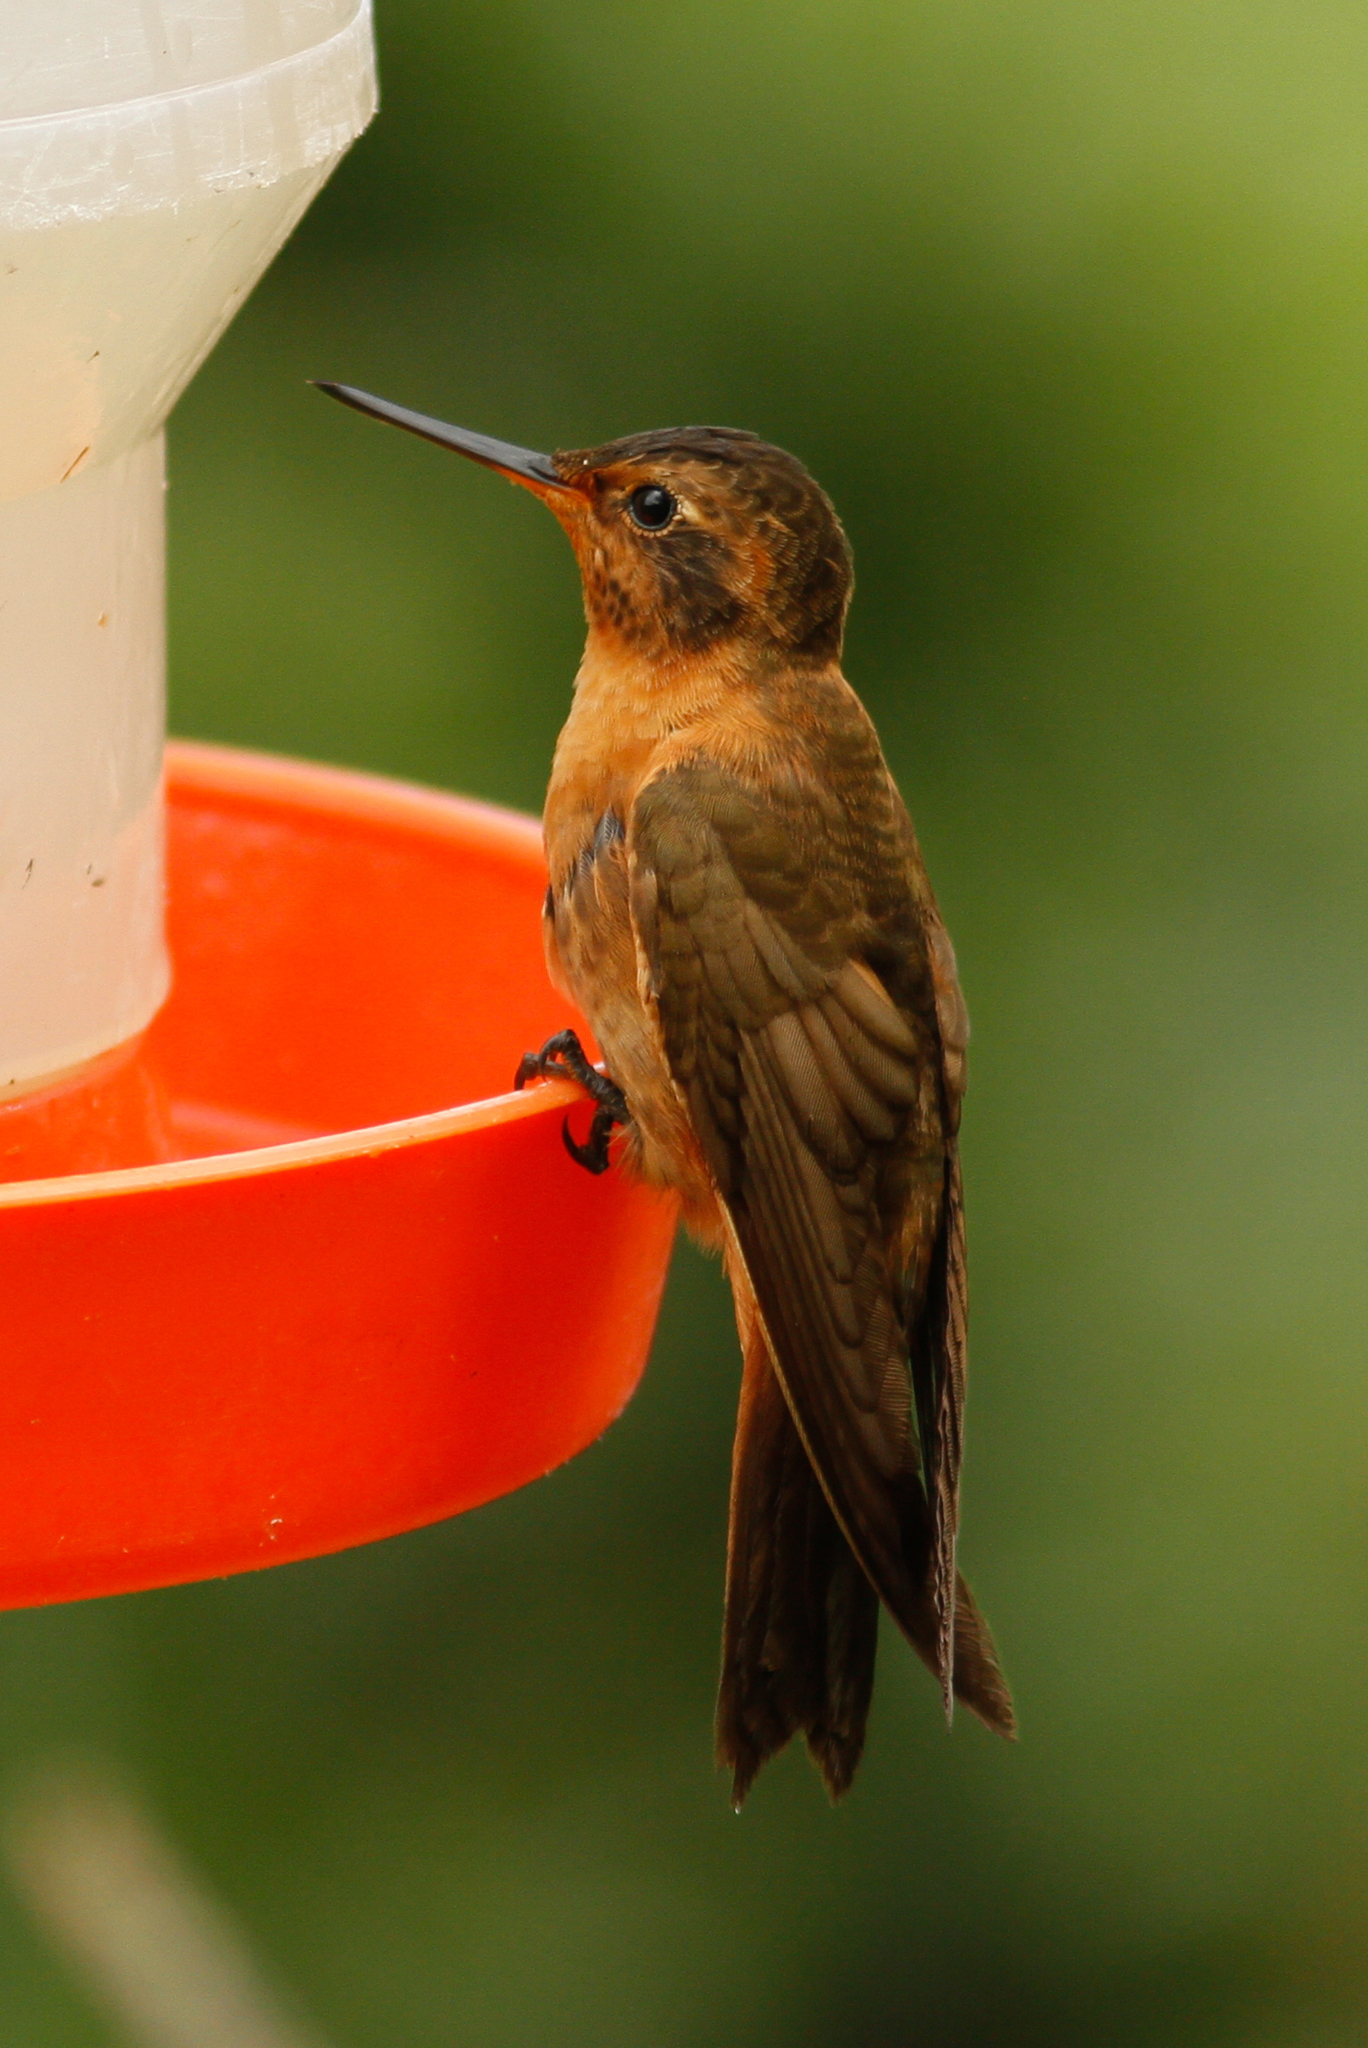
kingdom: Animalia
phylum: Chordata
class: Aves
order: Apodiformes
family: Trochilidae
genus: Aglaeactis
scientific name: Aglaeactis cupripennis
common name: Shining sunbeam
